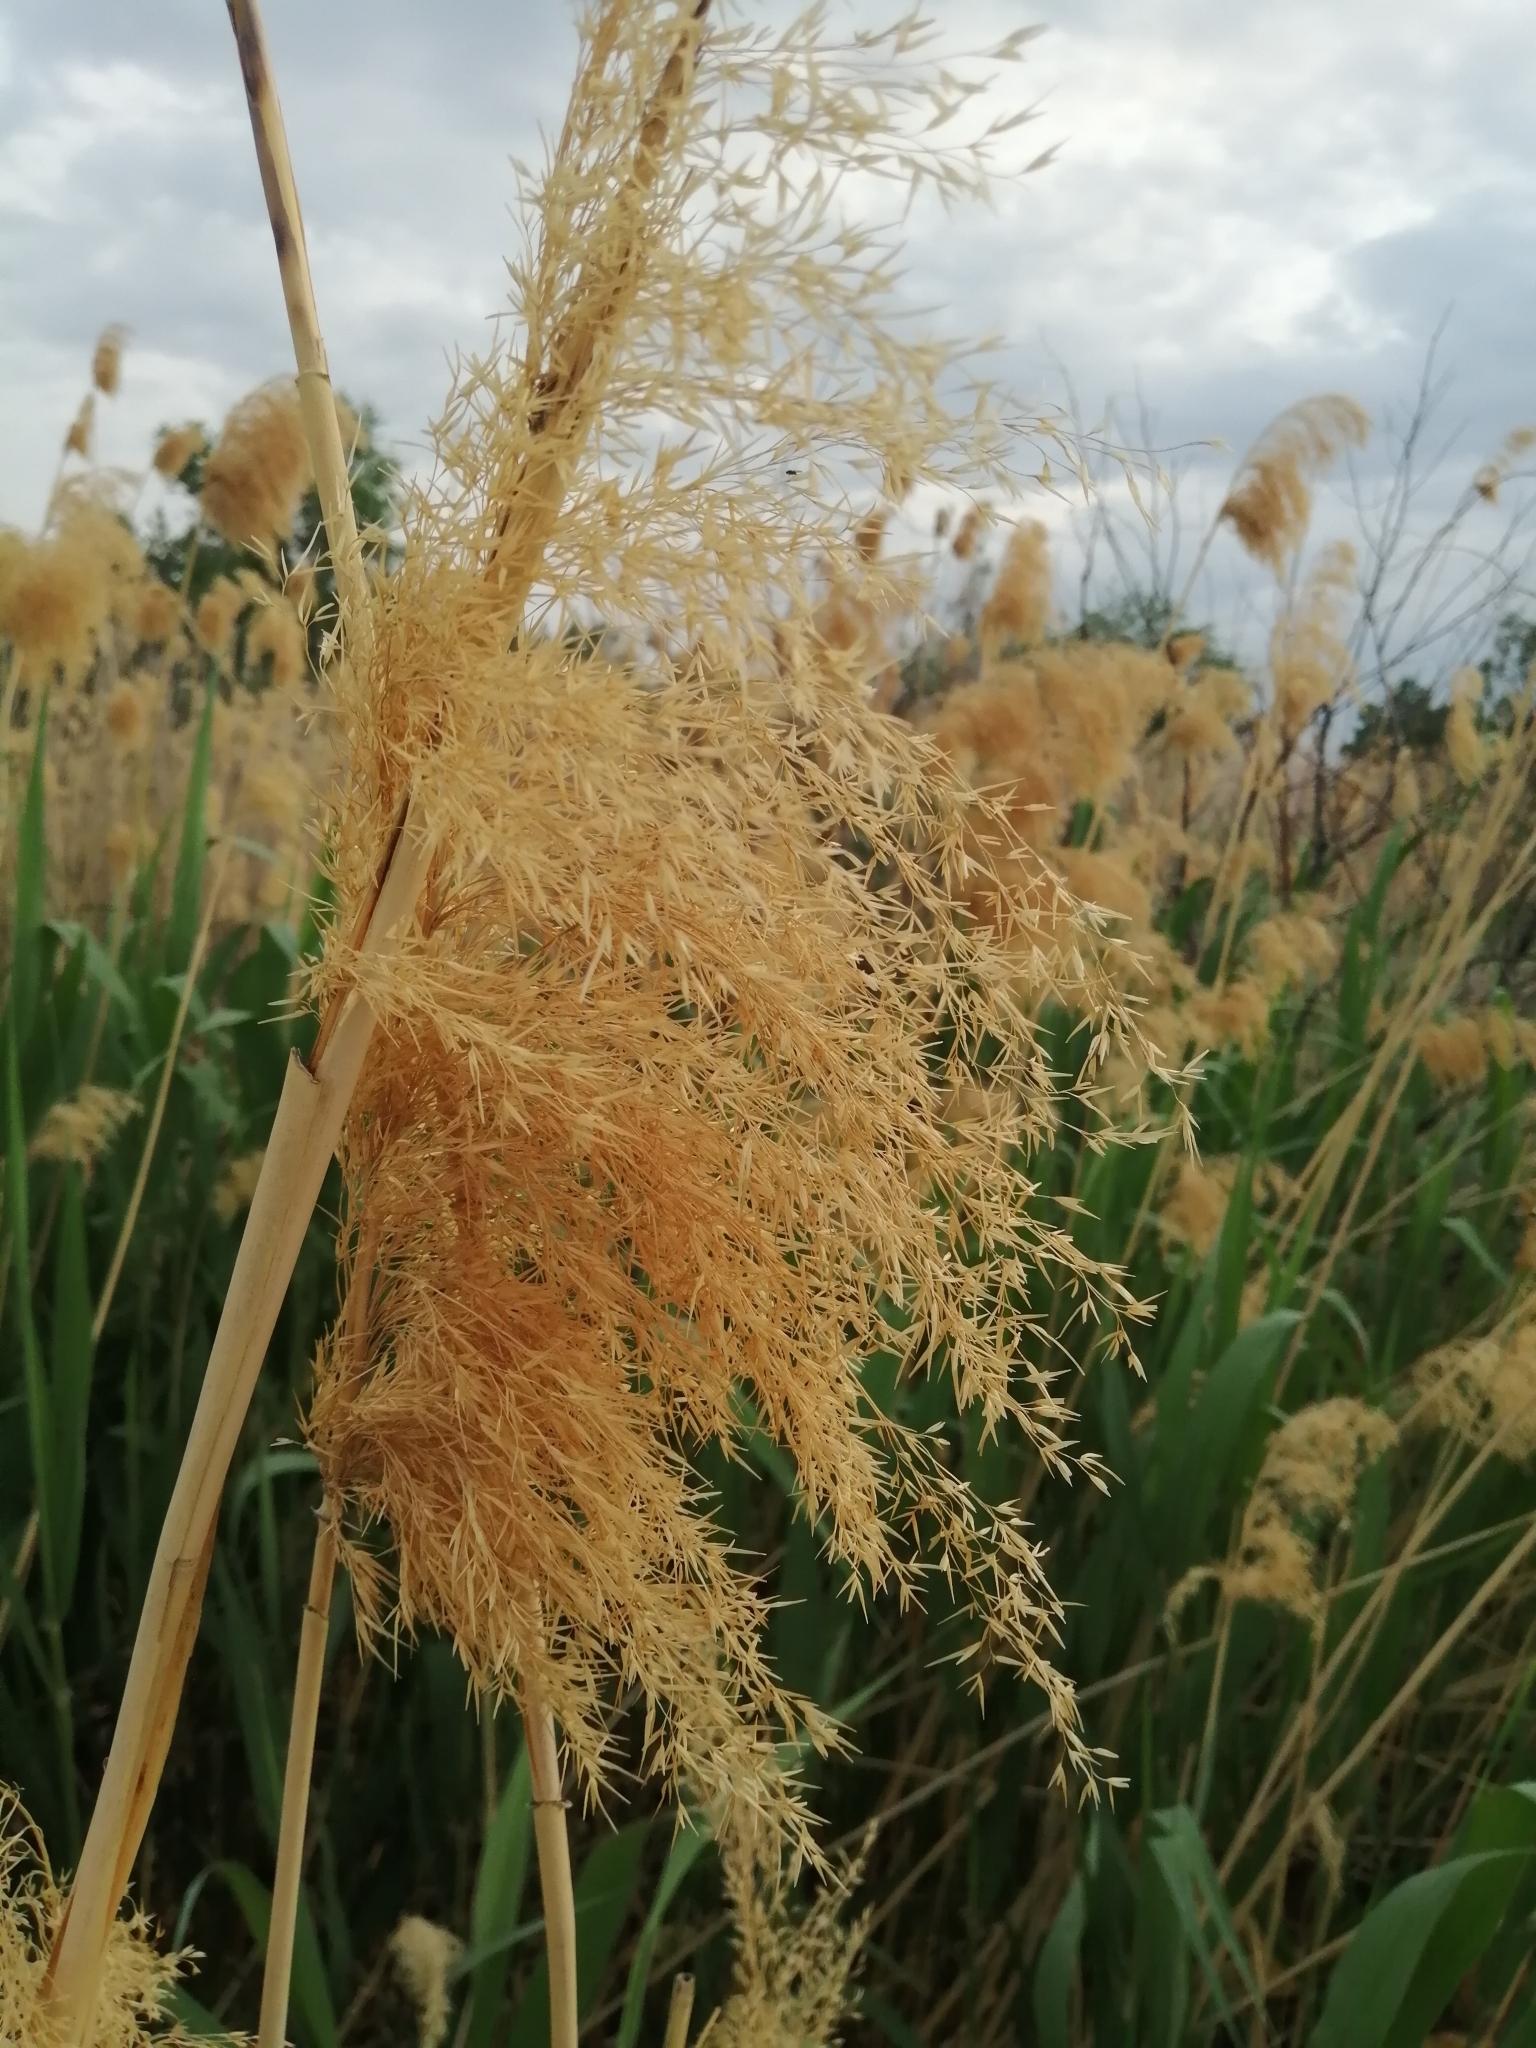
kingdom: Plantae
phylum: Tracheophyta
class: Liliopsida
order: Poales
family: Poaceae
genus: Phragmites
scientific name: Phragmites australis
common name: Common reed
